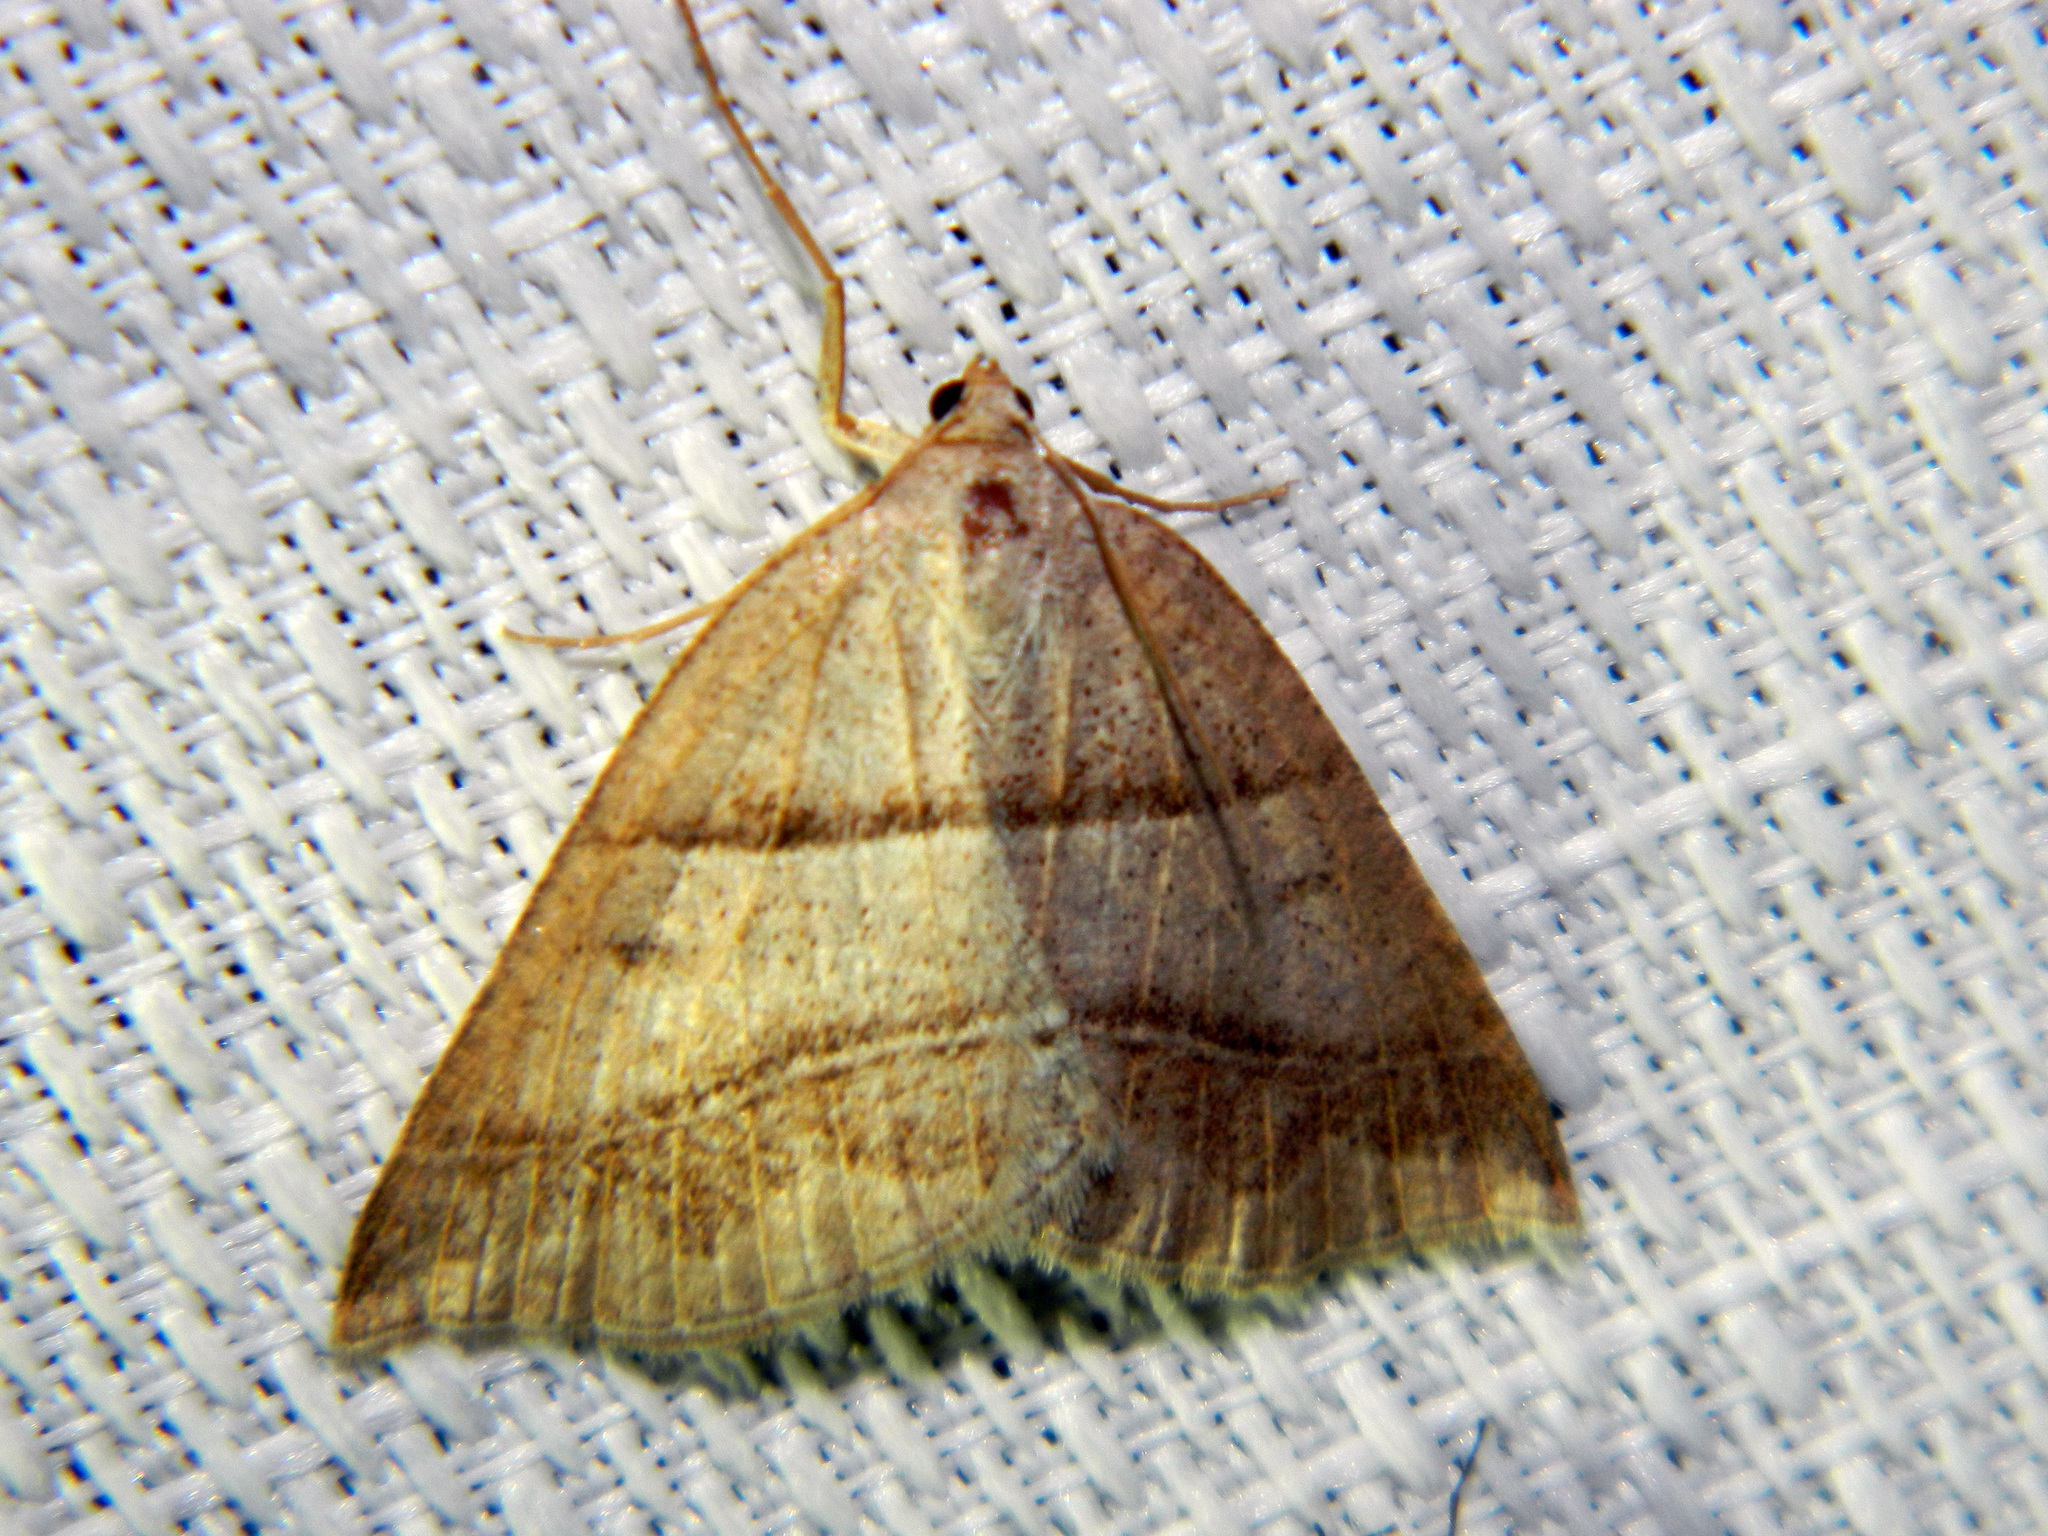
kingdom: Animalia
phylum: Arthropoda
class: Insecta
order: Lepidoptera
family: Pterophoridae
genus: Pterophorus
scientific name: Pterophorus Petrophora subaequaria
